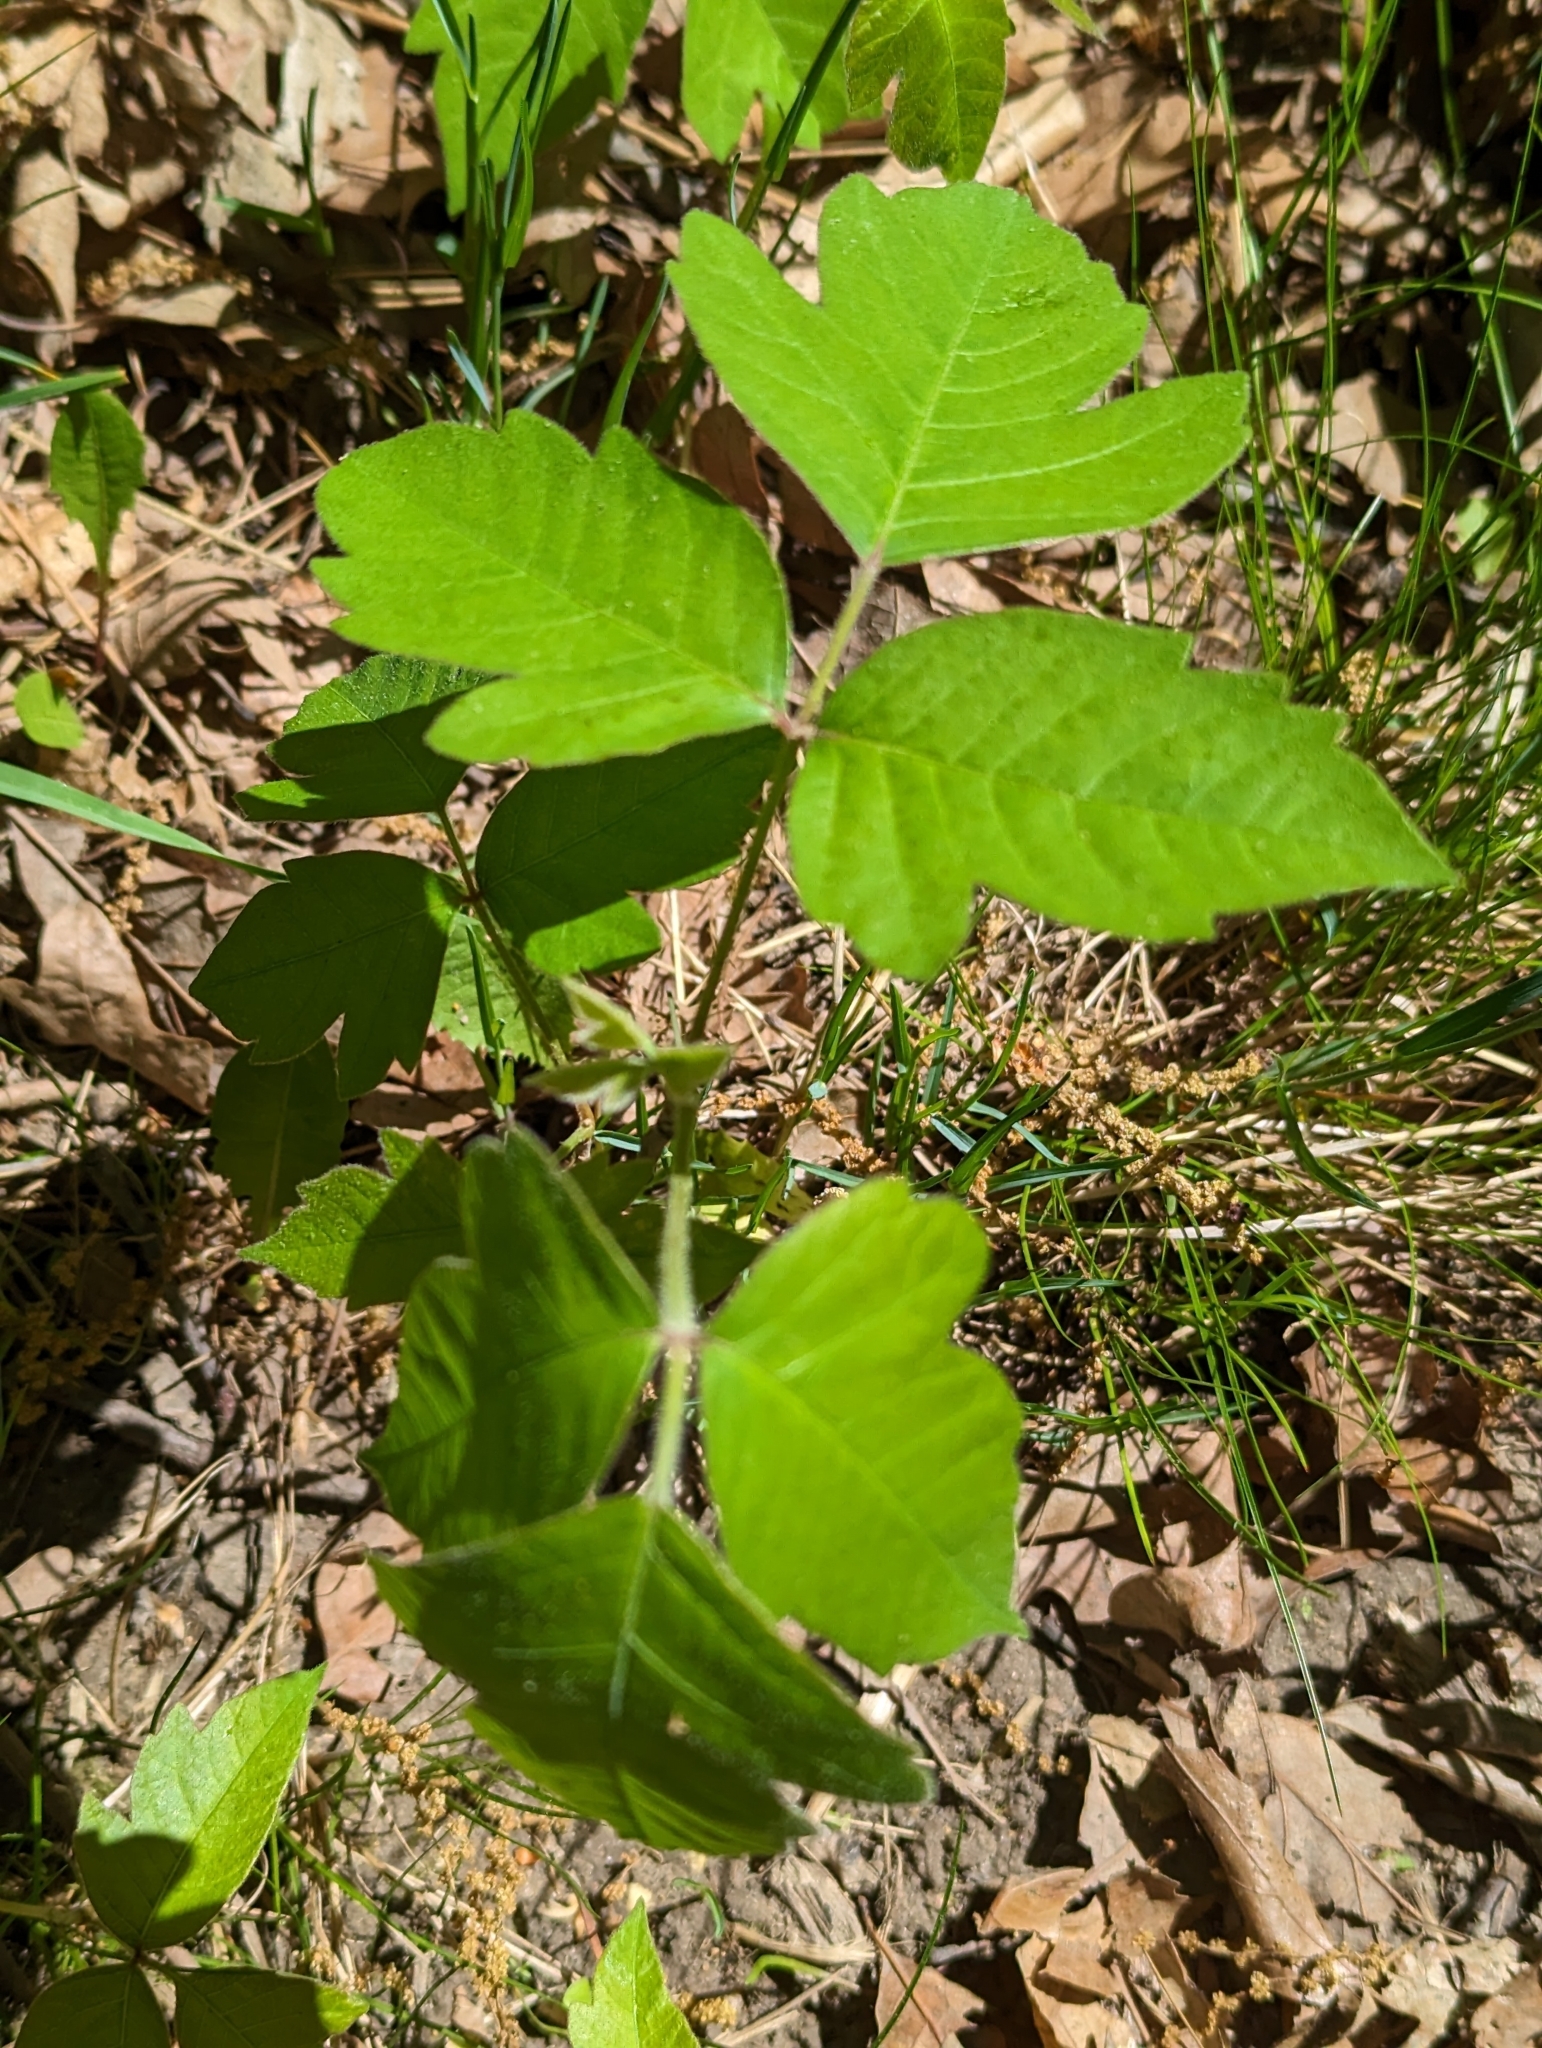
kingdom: Plantae
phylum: Tracheophyta
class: Magnoliopsida
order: Sapindales
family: Anacardiaceae
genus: Toxicodendron
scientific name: Toxicodendron radicans
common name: Poison ivy
